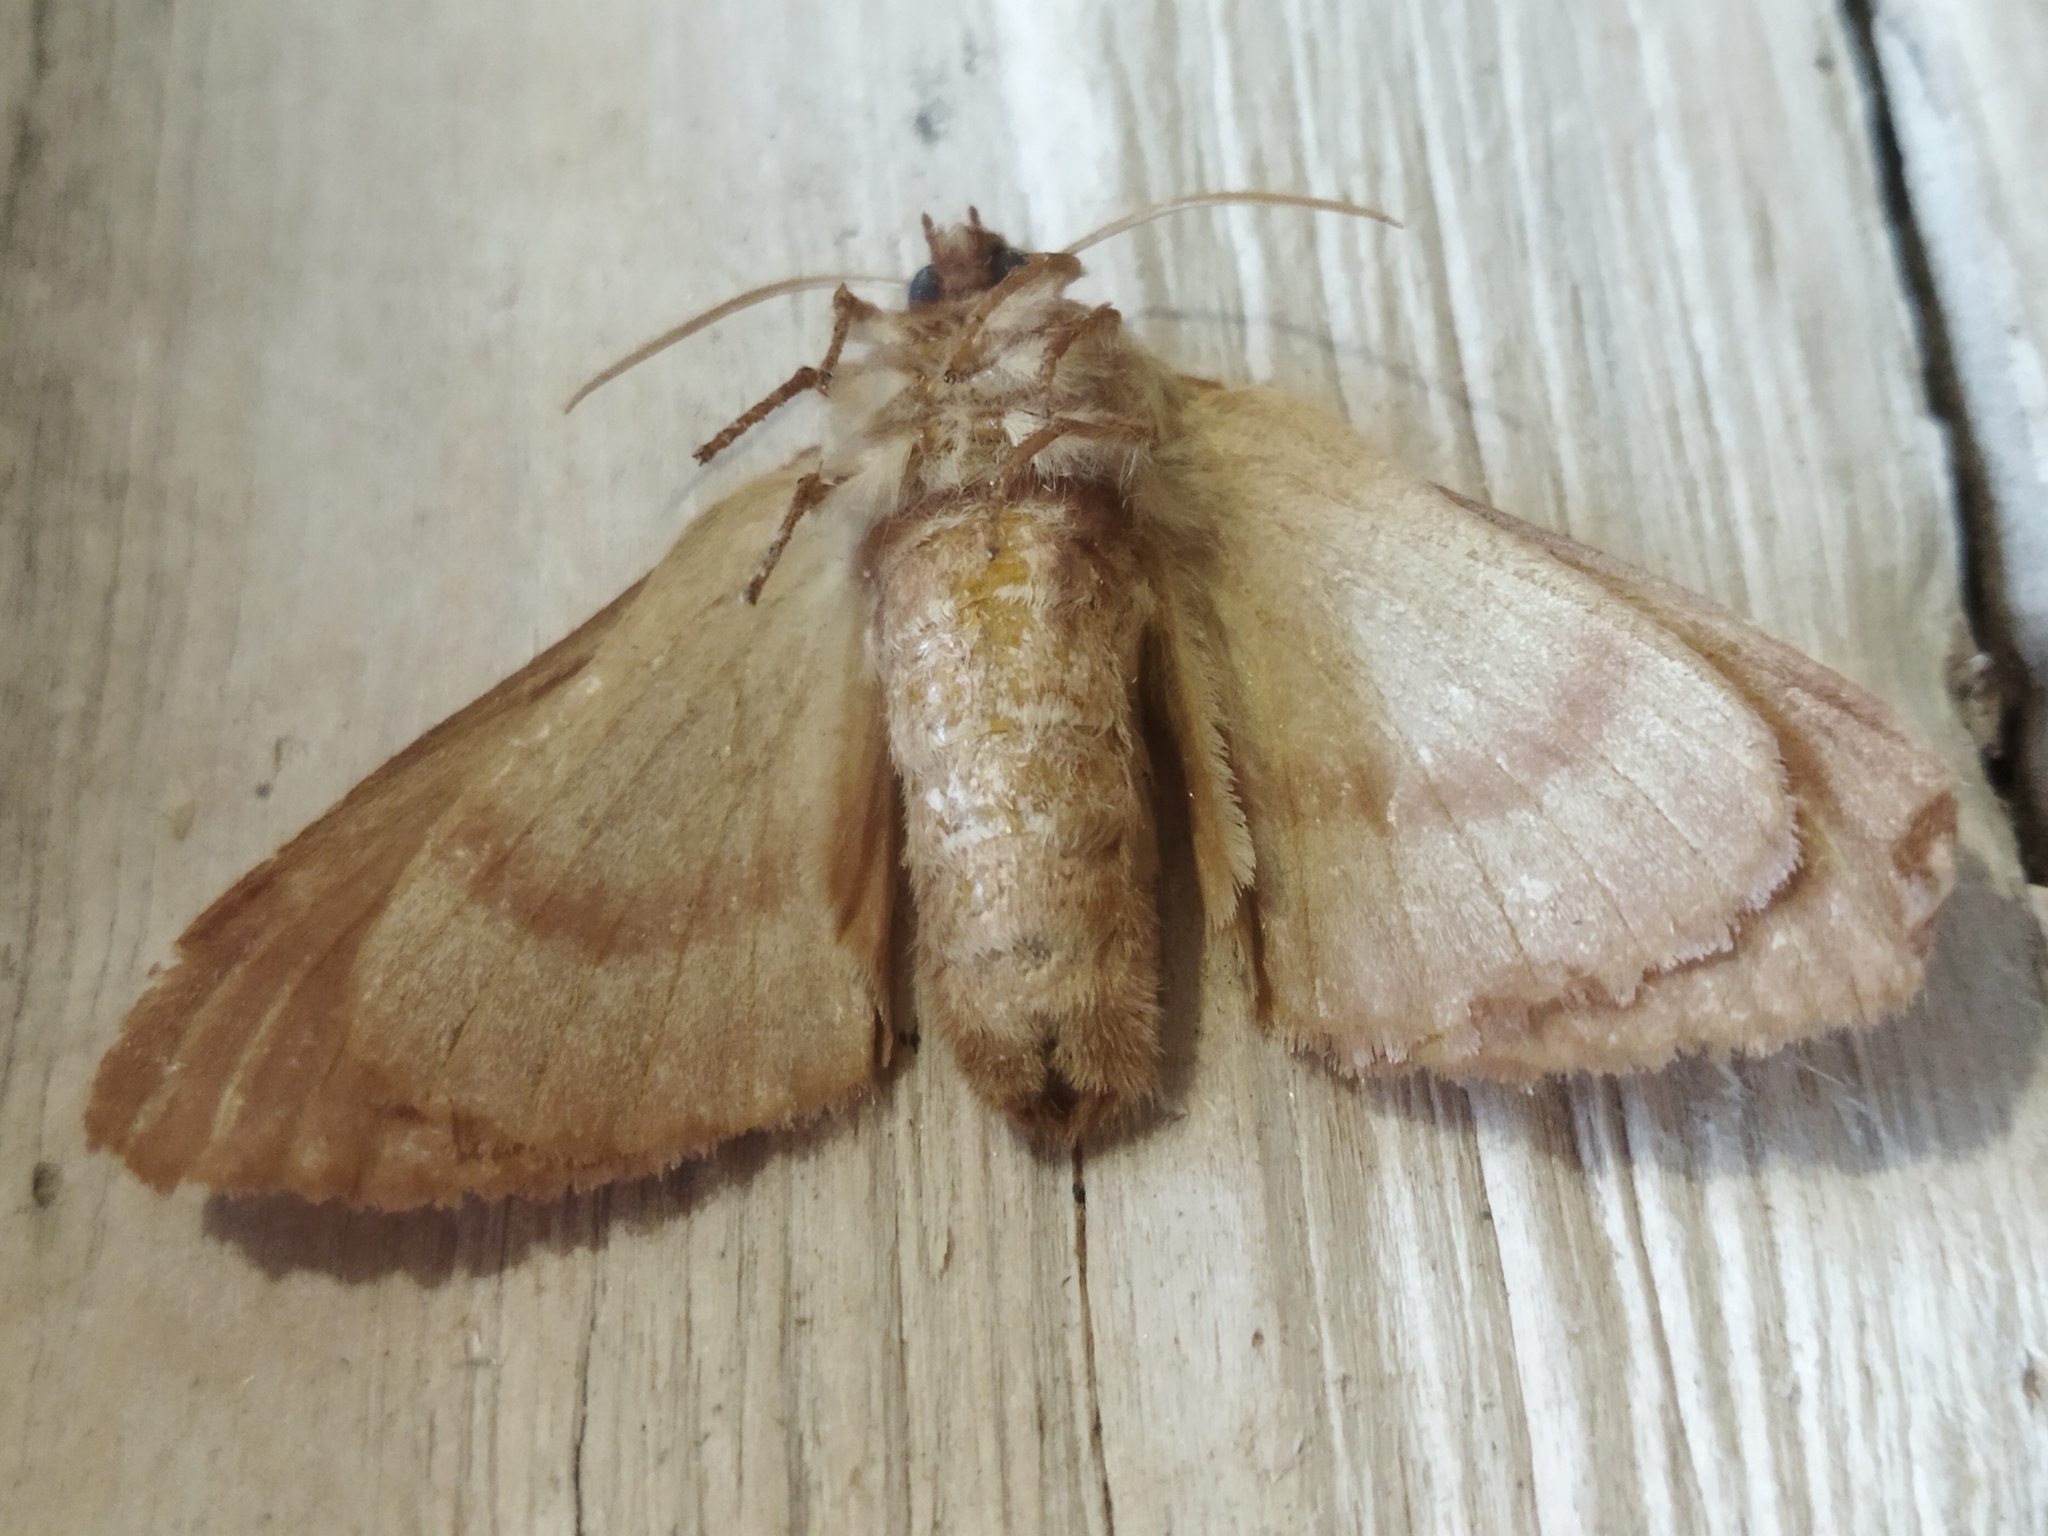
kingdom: Animalia
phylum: Arthropoda
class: Insecta
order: Lepidoptera
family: Lasiocampidae
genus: Lasiocampa
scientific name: Lasiocampa trifolii
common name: Grass eggar
